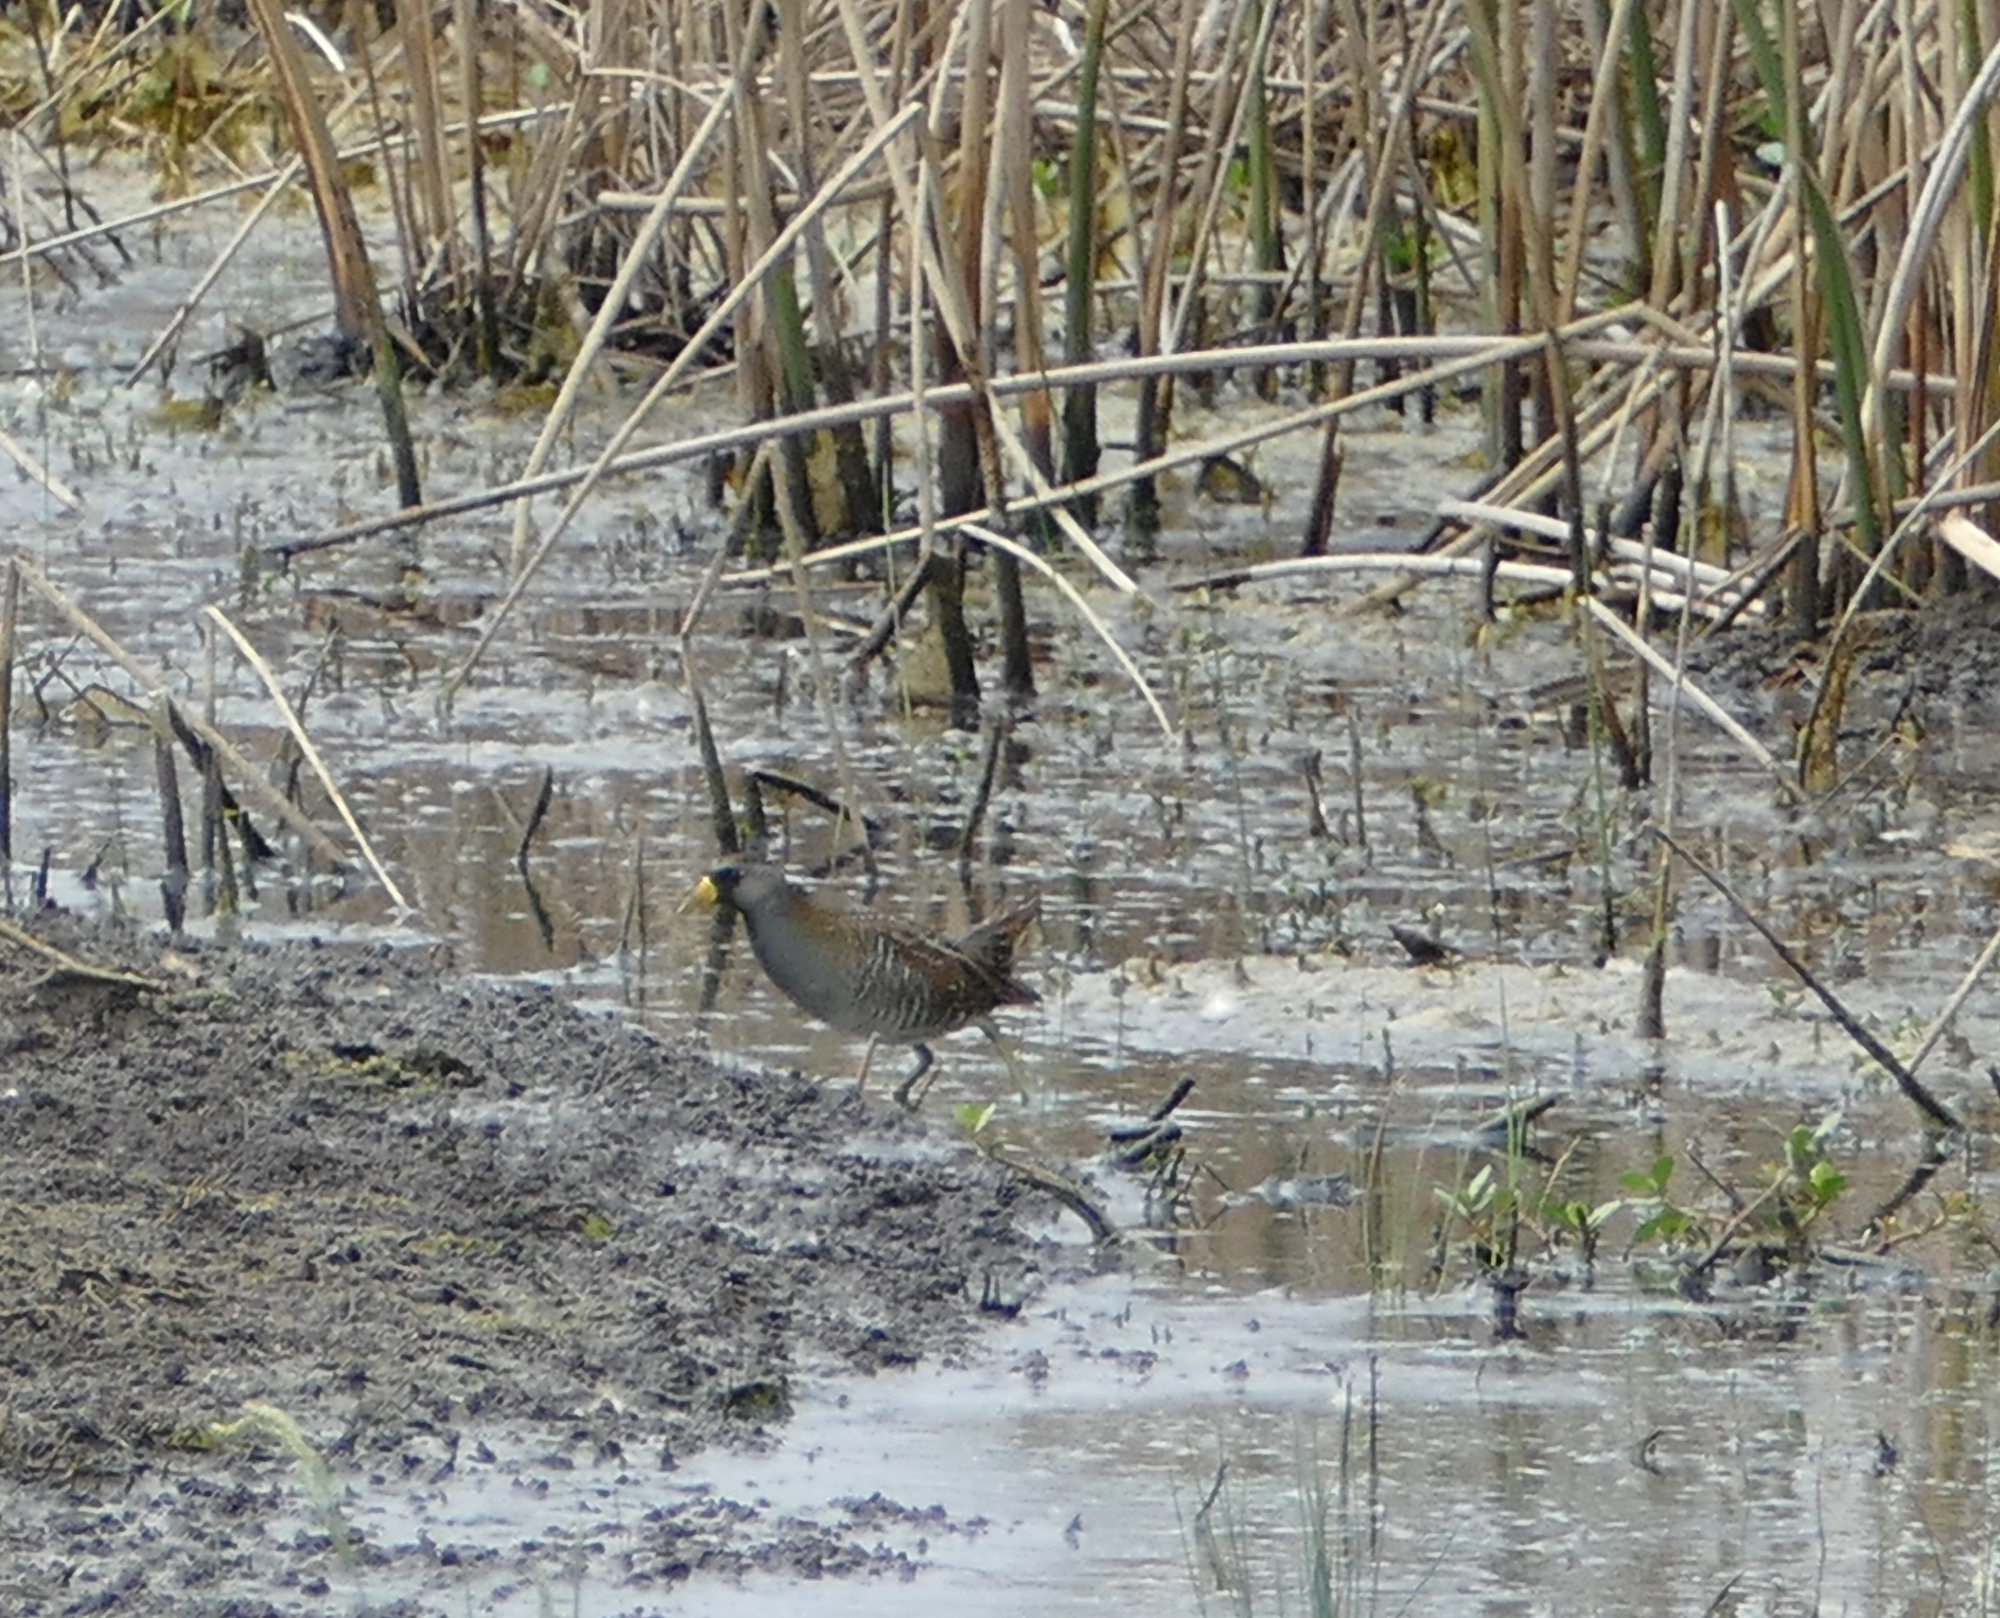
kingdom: Animalia
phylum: Chordata
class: Aves
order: Gruiformes
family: Rallidae
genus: Porzana
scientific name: Porzana carolina
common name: Sora
